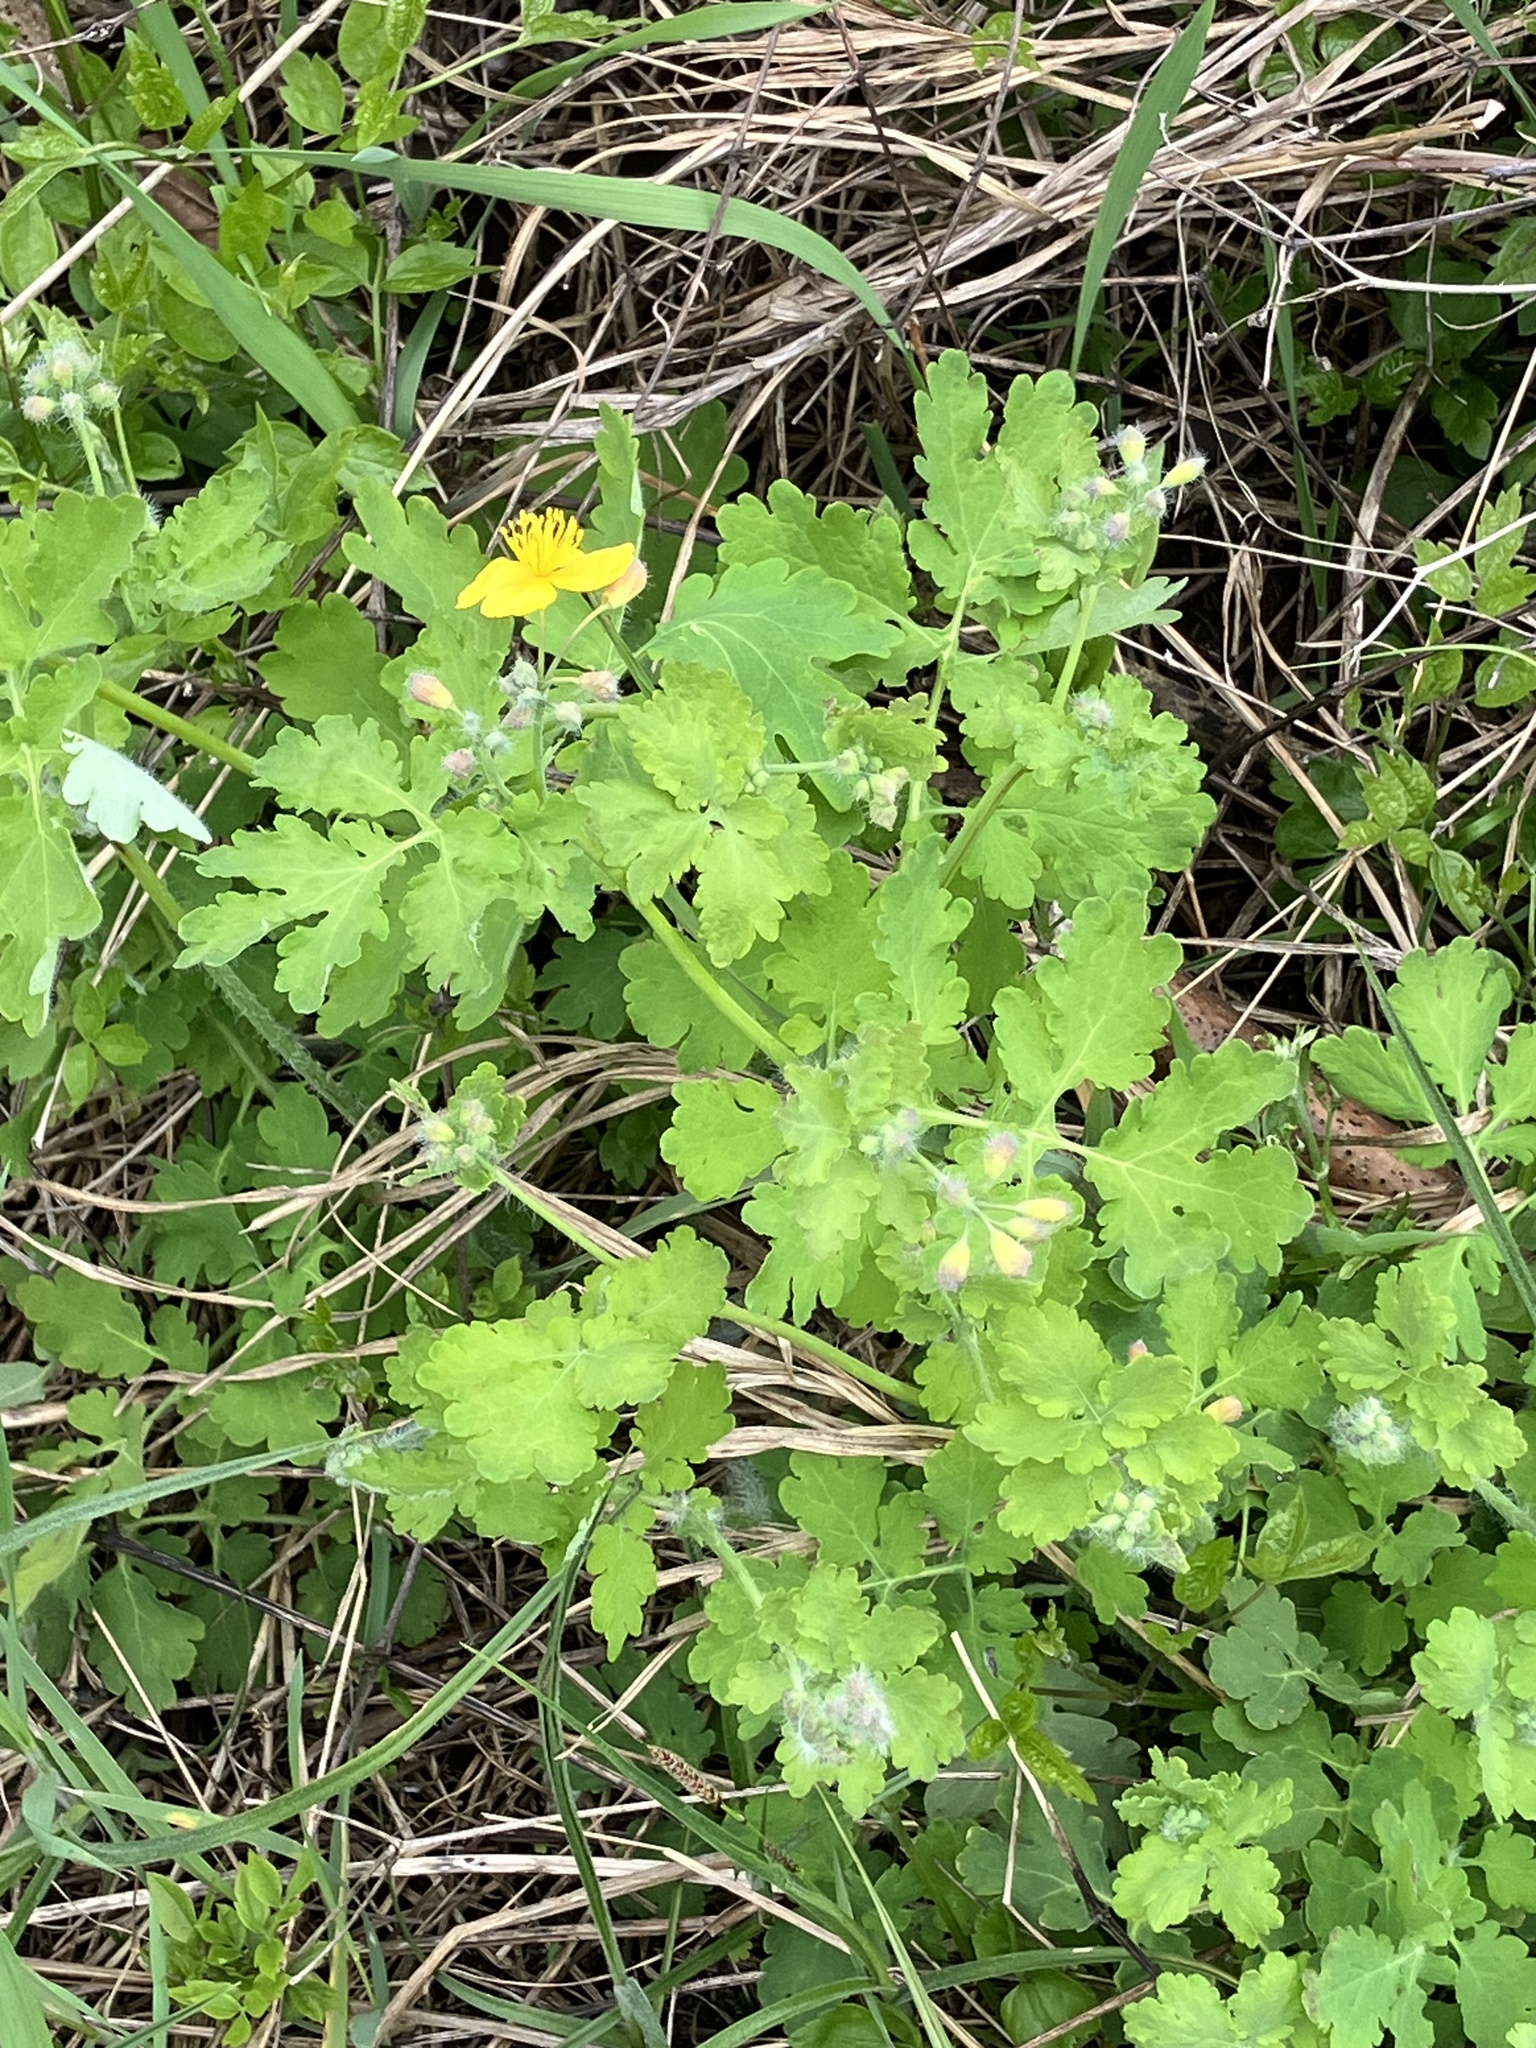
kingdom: Plantae
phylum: Tracheophyta
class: Magnoliopsida
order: Ranunculales
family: Papaveraceae
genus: Chelidonium
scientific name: Chelidonium majus
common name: Greater celandine
